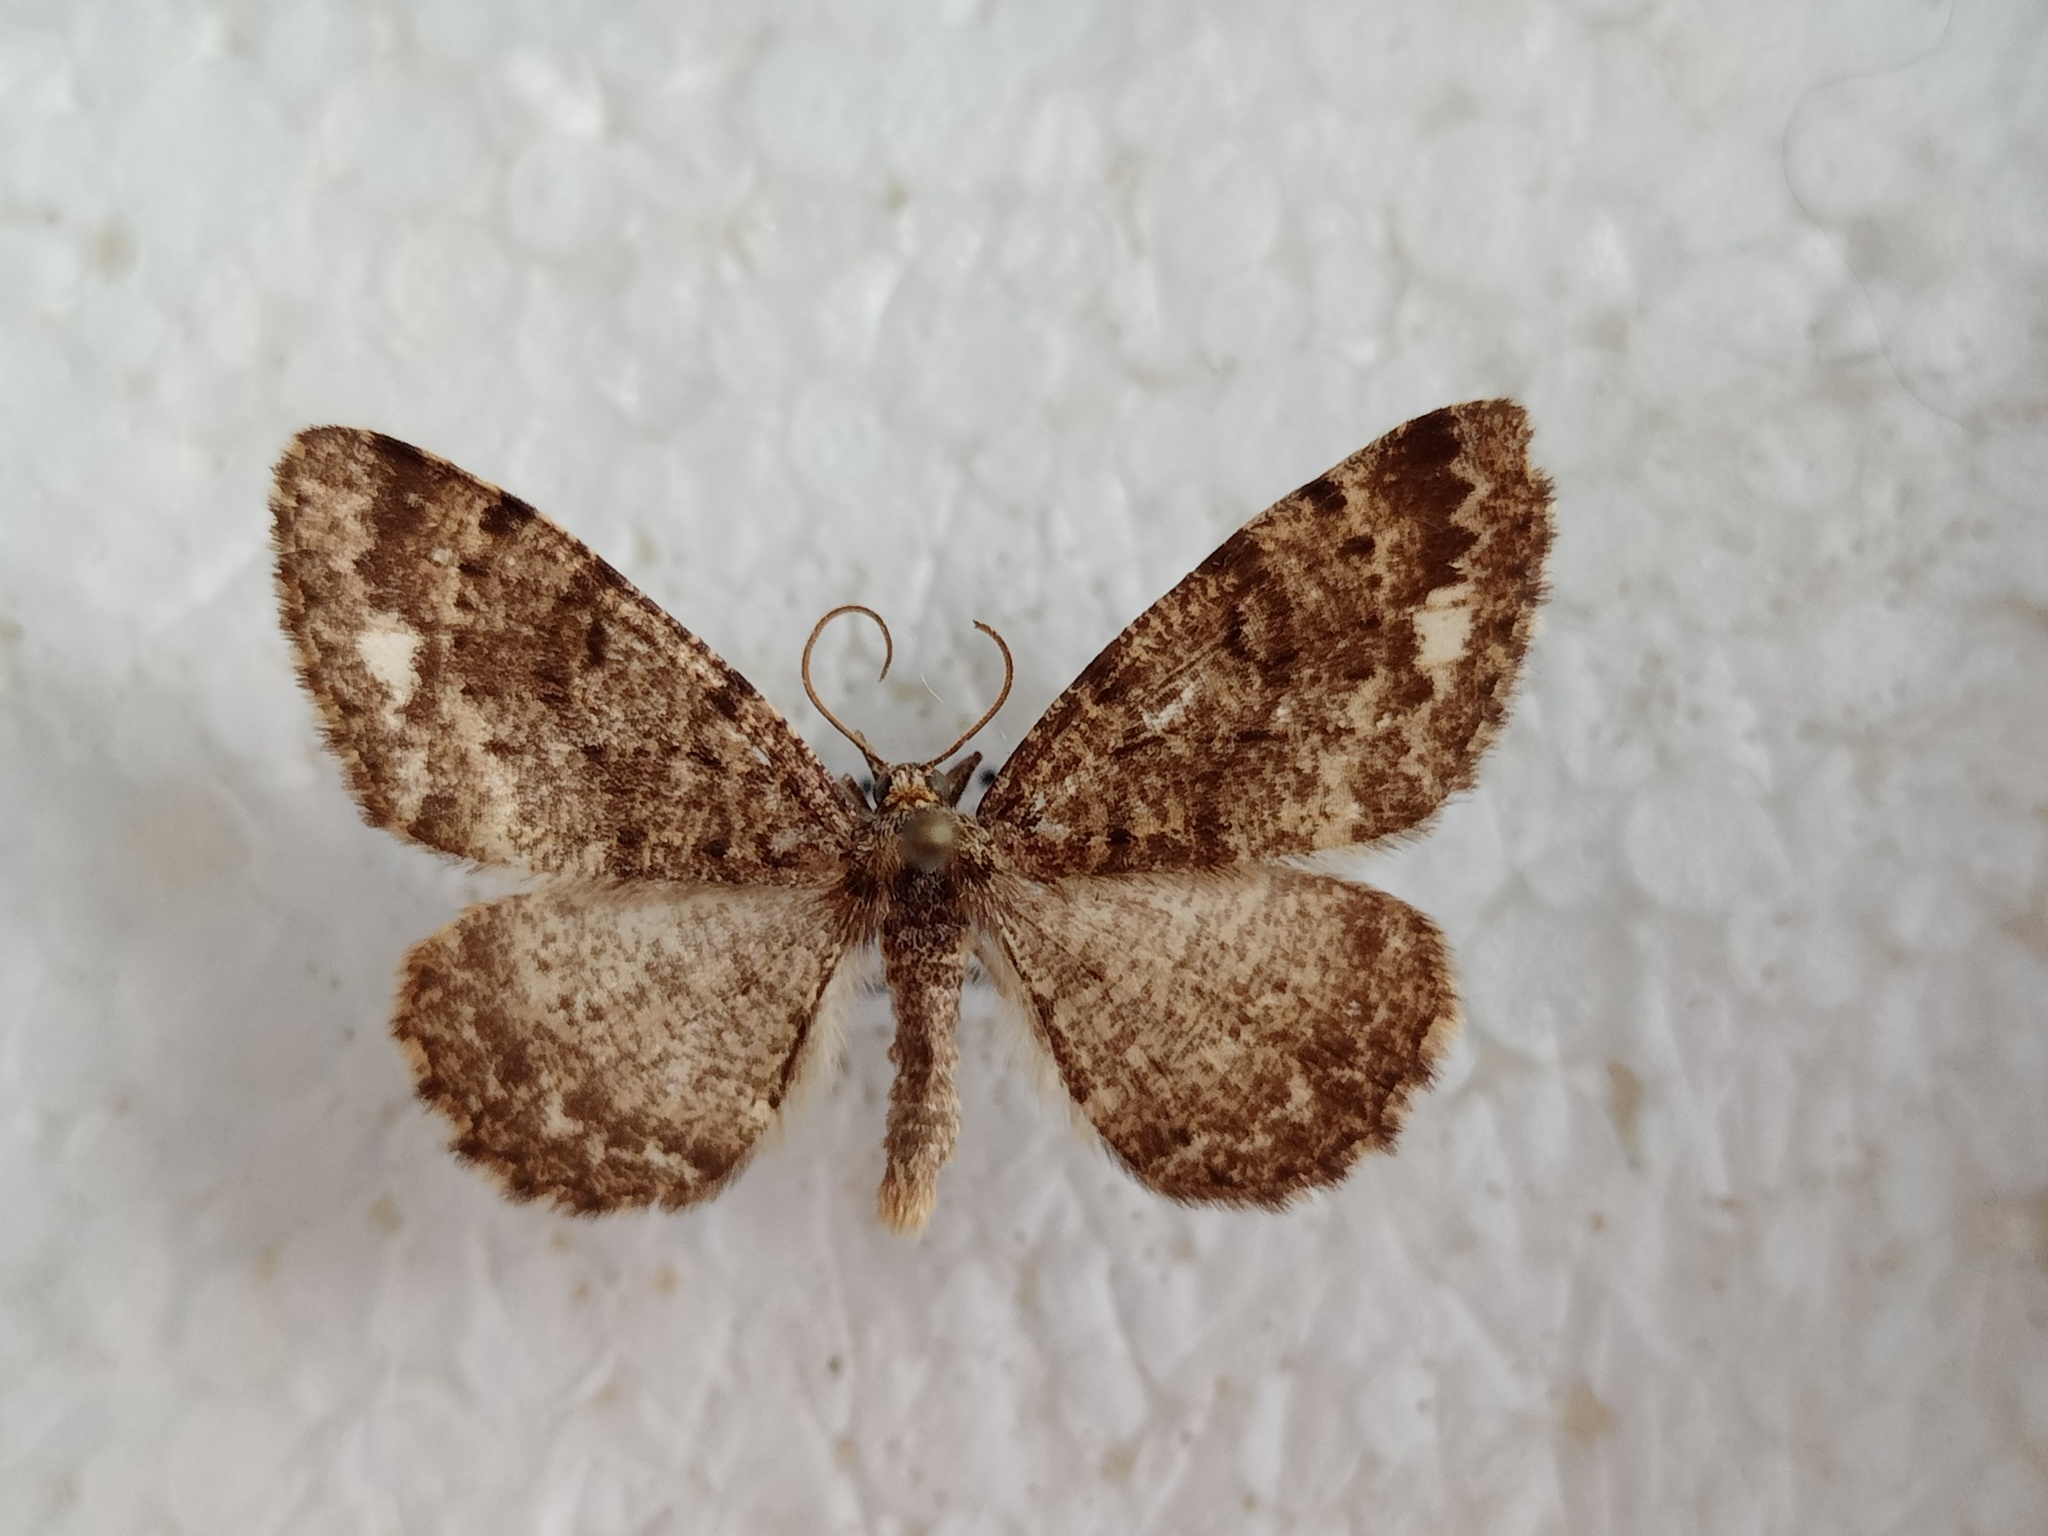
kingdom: Animalia
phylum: Arthropoda
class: Insecta
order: Lepidoptera
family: Geometridae
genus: Parectropis
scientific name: Parectropis similaria
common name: Brindled white-spot
